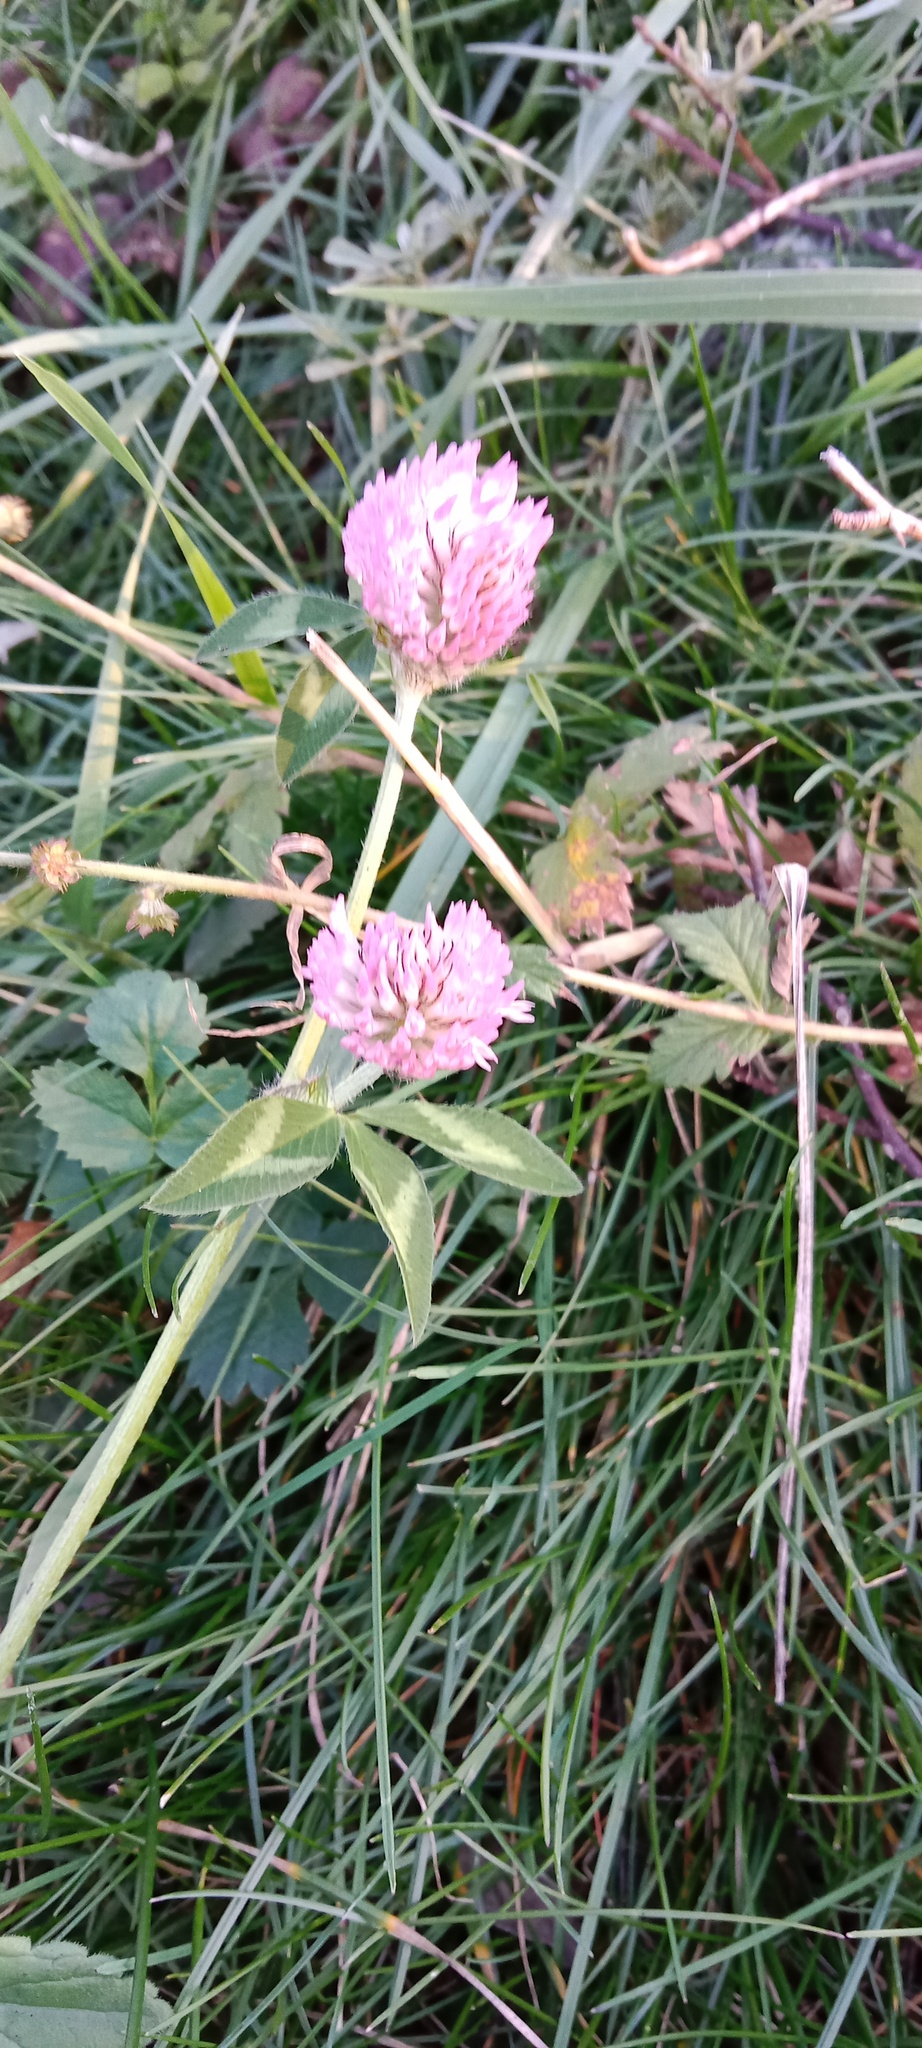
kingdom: Plantae
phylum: Tracheophyta
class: Magnoliopsida
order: Fabales
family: Fabaceae
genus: Trifolium
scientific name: Trifolium pratense
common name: Red clover
